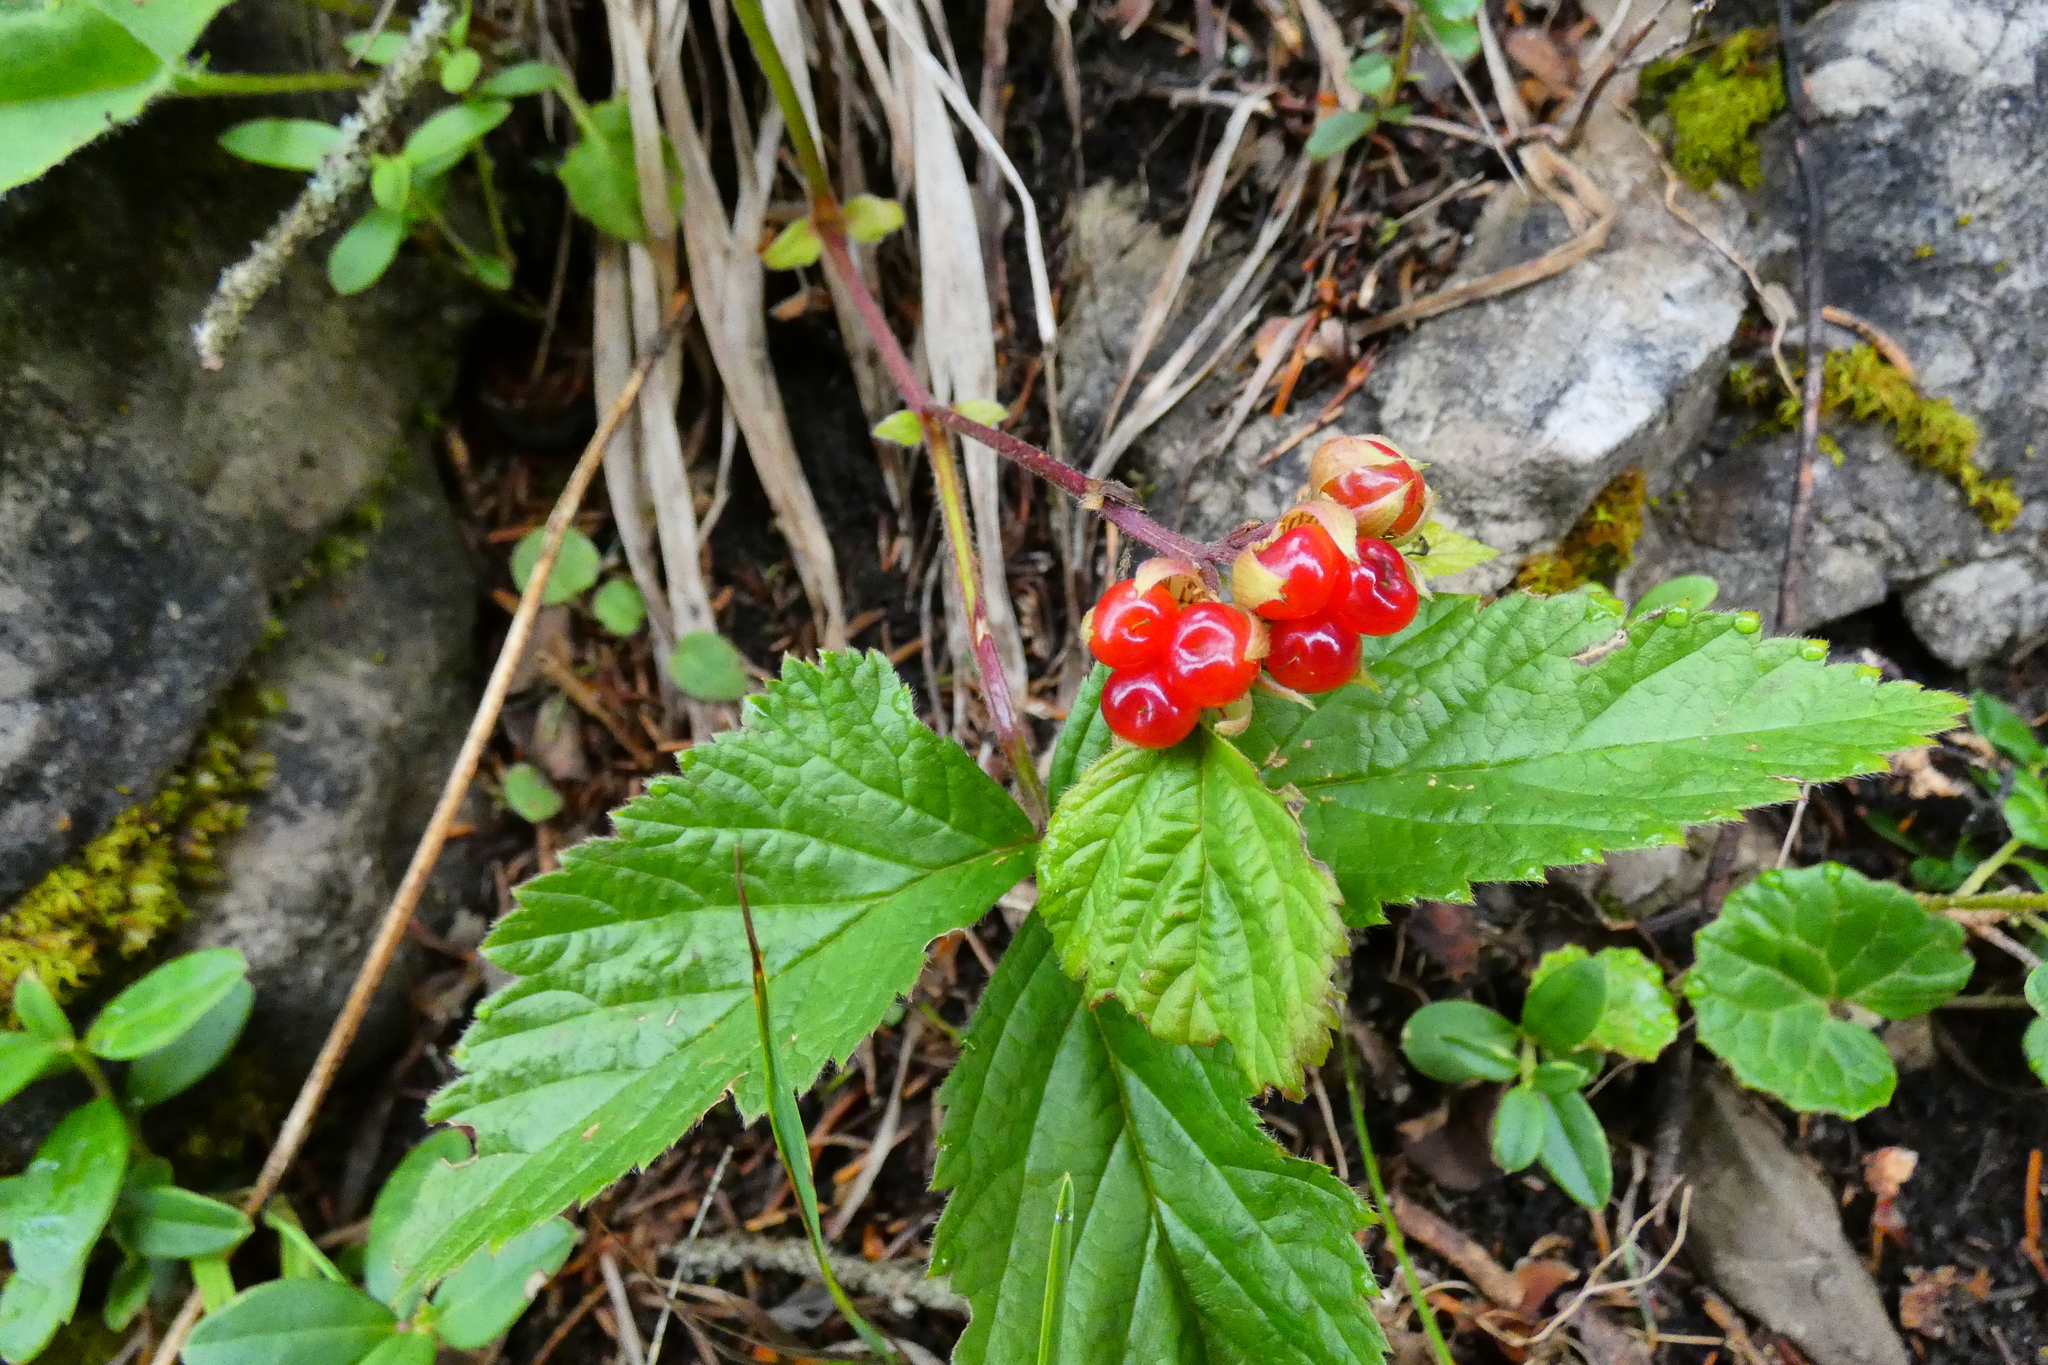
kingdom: Plantae
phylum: Tracheophyta
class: Magnoliopsida
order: Rosales
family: Rosaceae
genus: Rubus
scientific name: Rubus saxatilis
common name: Stone bramble
